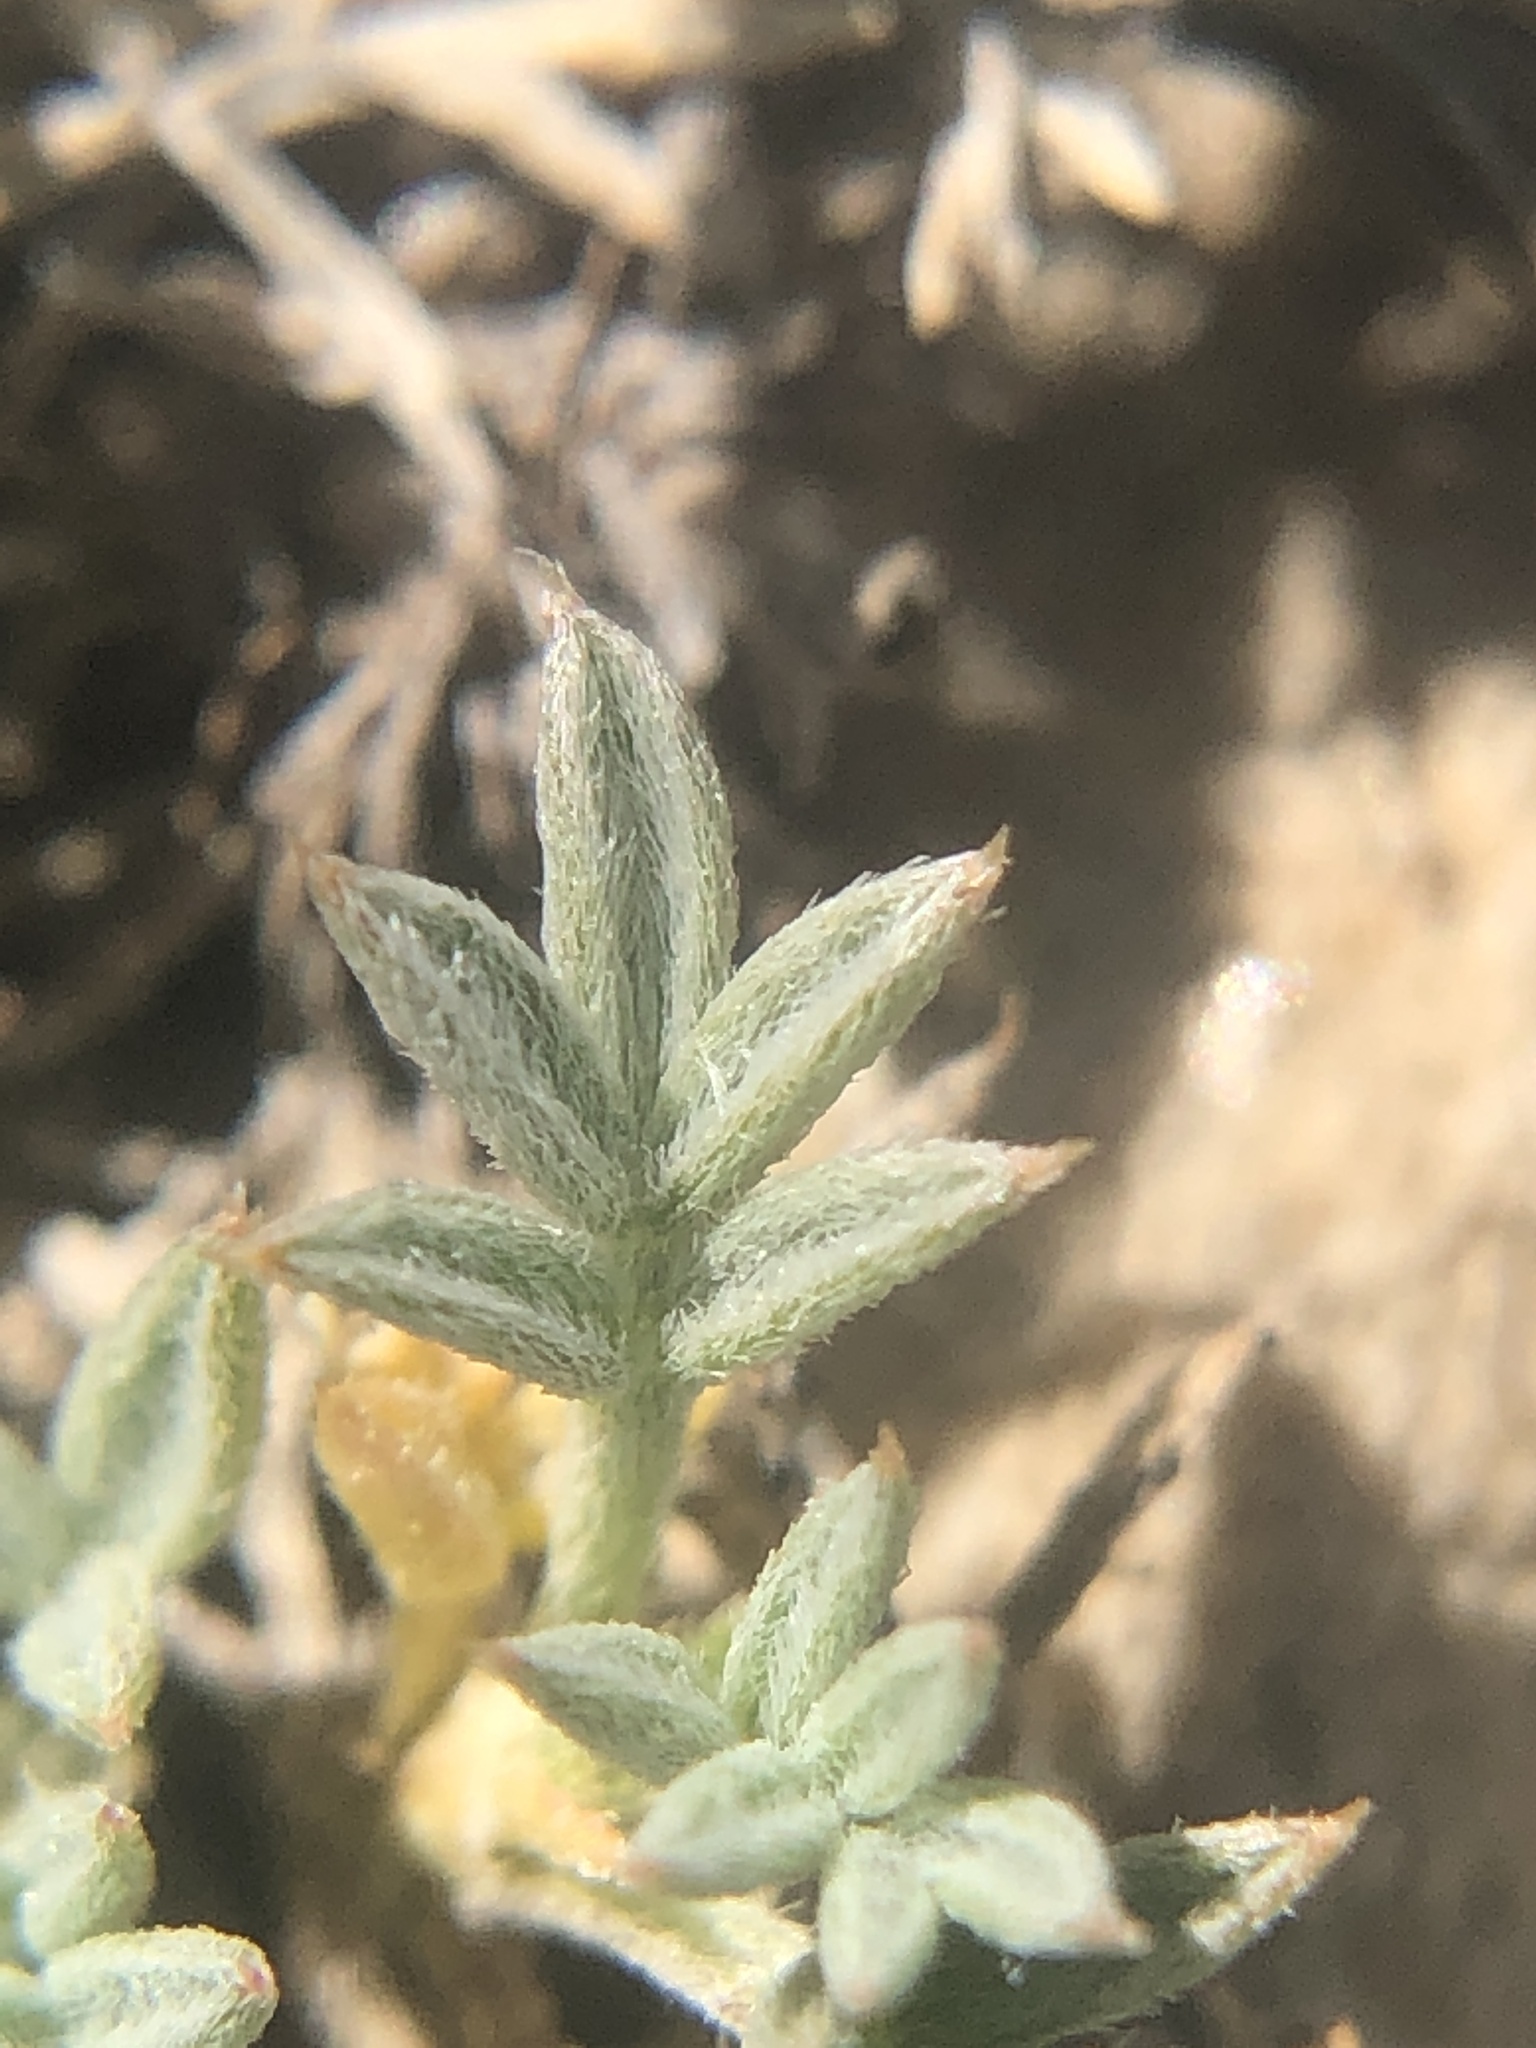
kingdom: Plantae
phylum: Tracheophyta
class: Magnoliopsida
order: Fabales
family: Fabaceae
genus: Astragalus
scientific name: Astragalus kentrophyta
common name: Prickly milk-vetch
